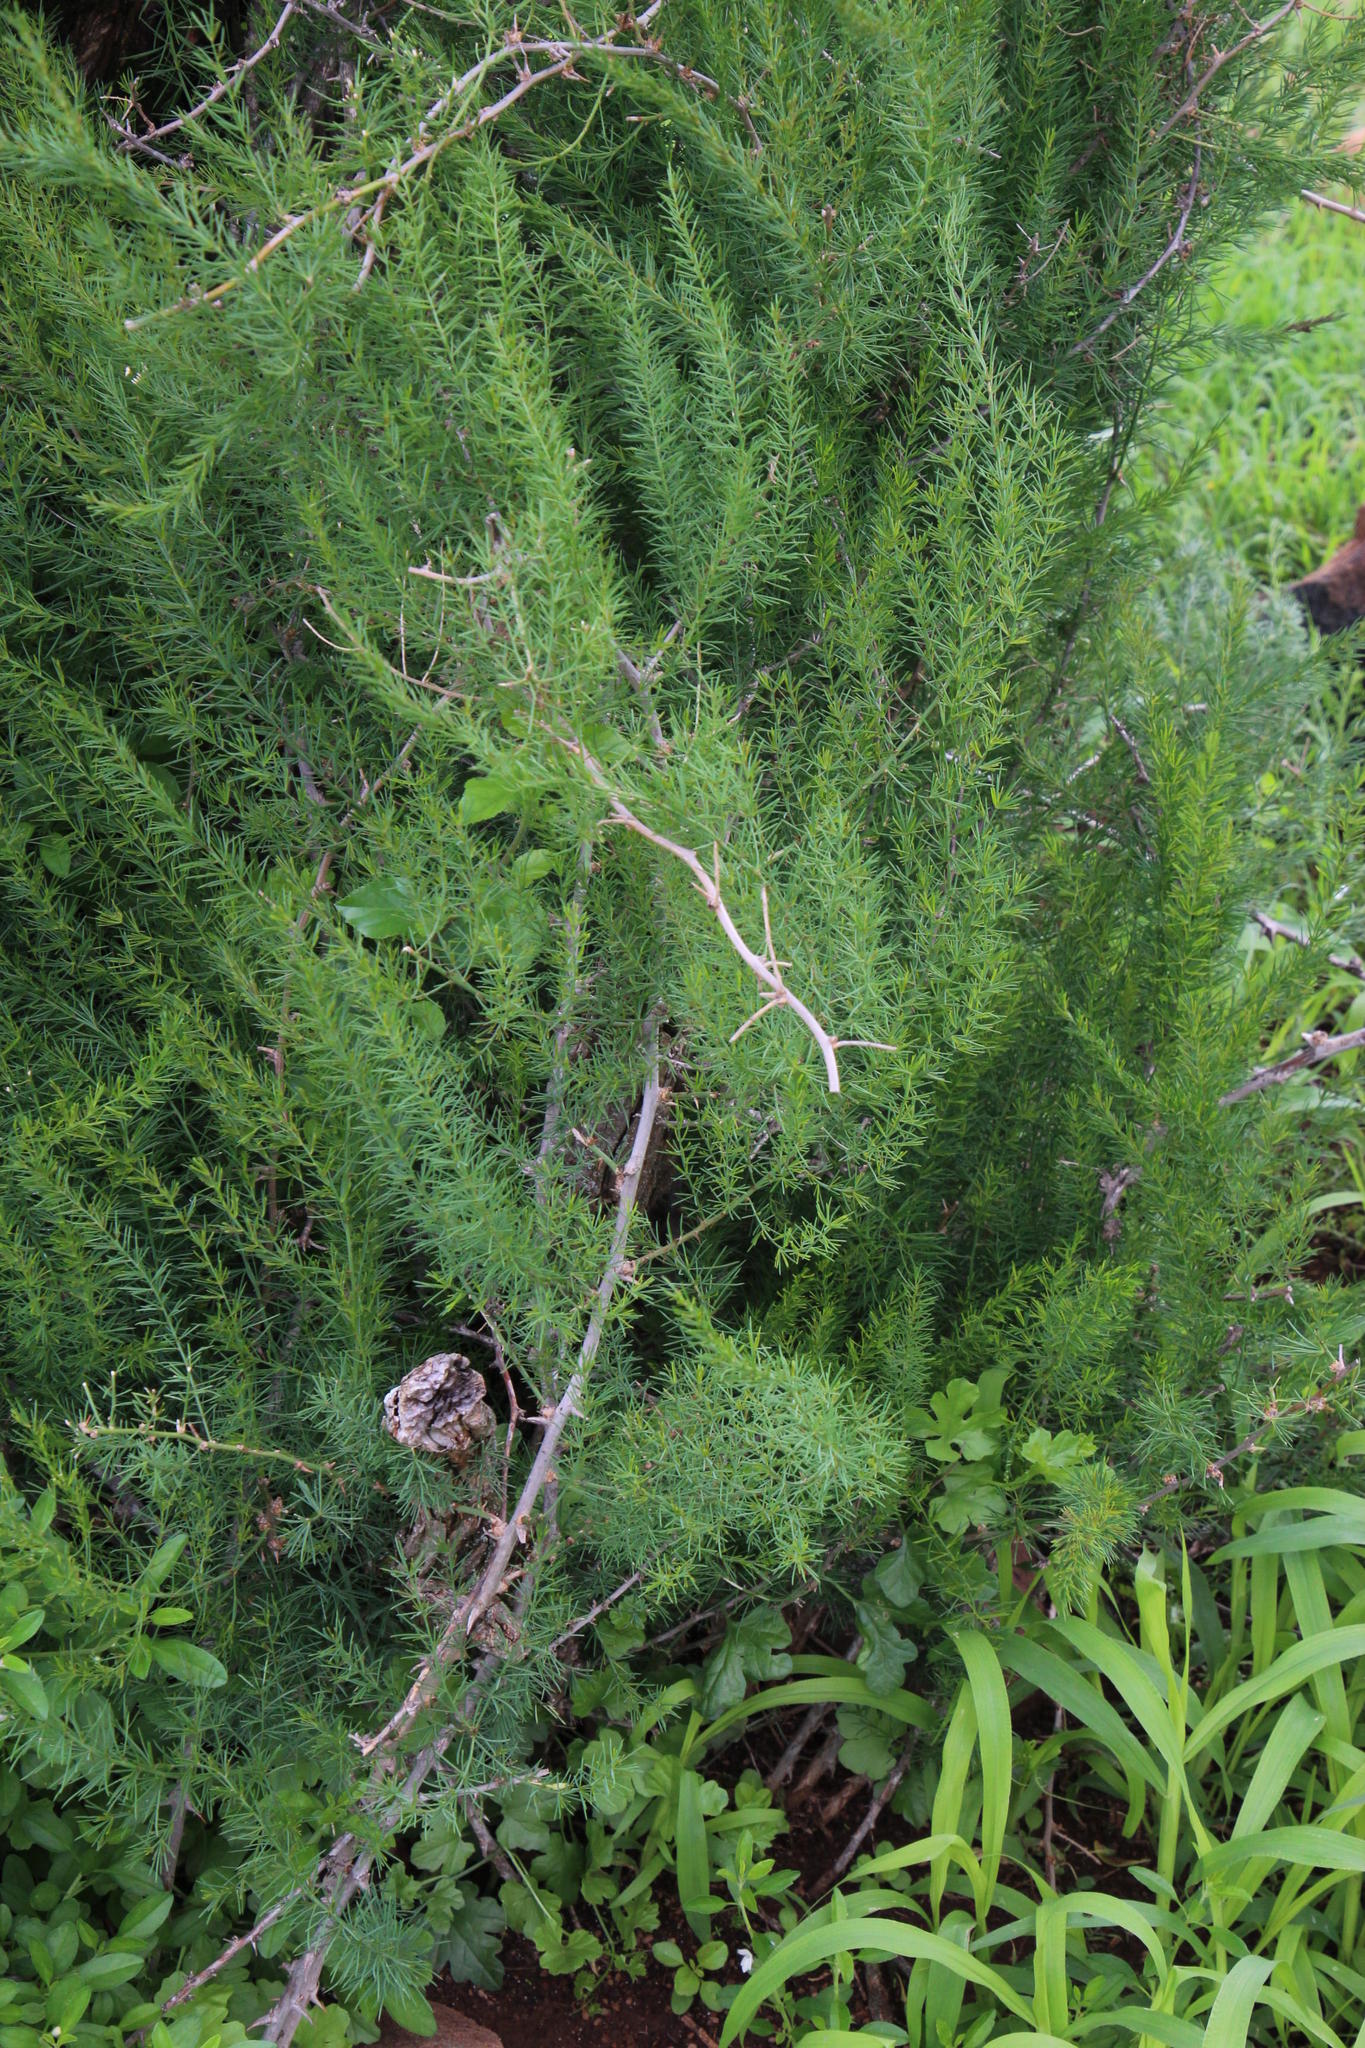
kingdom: Plantae
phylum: Tracheophyta
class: Liliopsida
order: Asparagales
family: Asparagaceae
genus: Asparagus
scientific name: Asparagus aethiopicus
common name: Sprenger's asparagus fern
